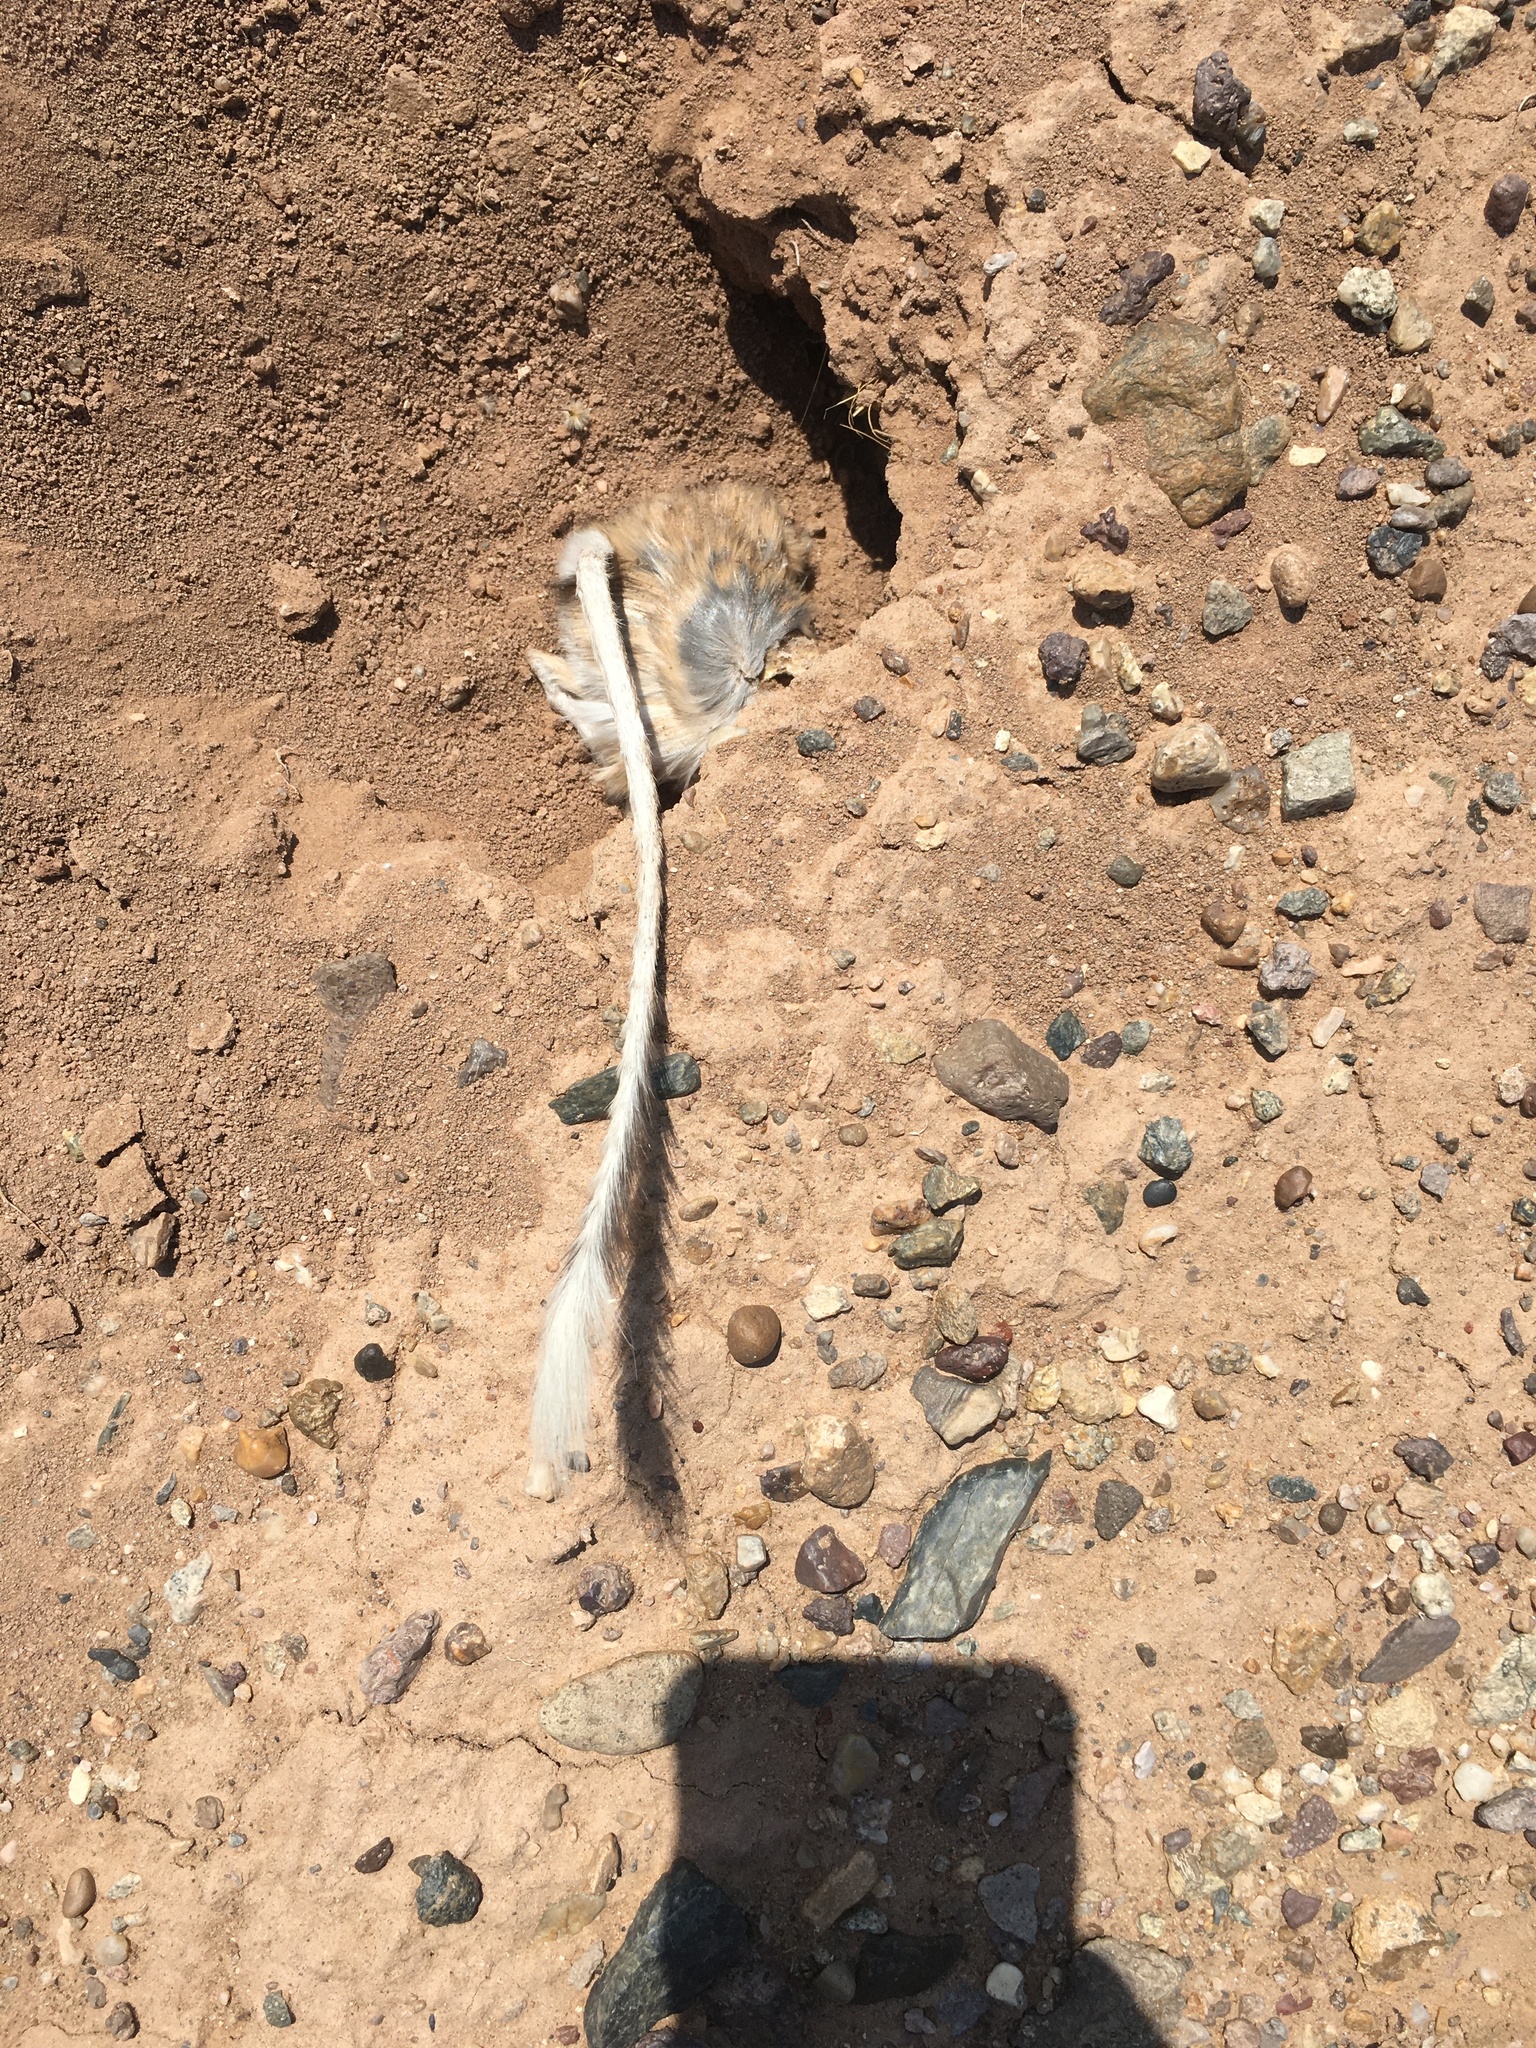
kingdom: Animalia
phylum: Chordata
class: Mammalia
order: Rodentia
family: Heteromyidae
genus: Dipodomys
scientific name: Dipodomys deserti
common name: Desert kangaroo rat
